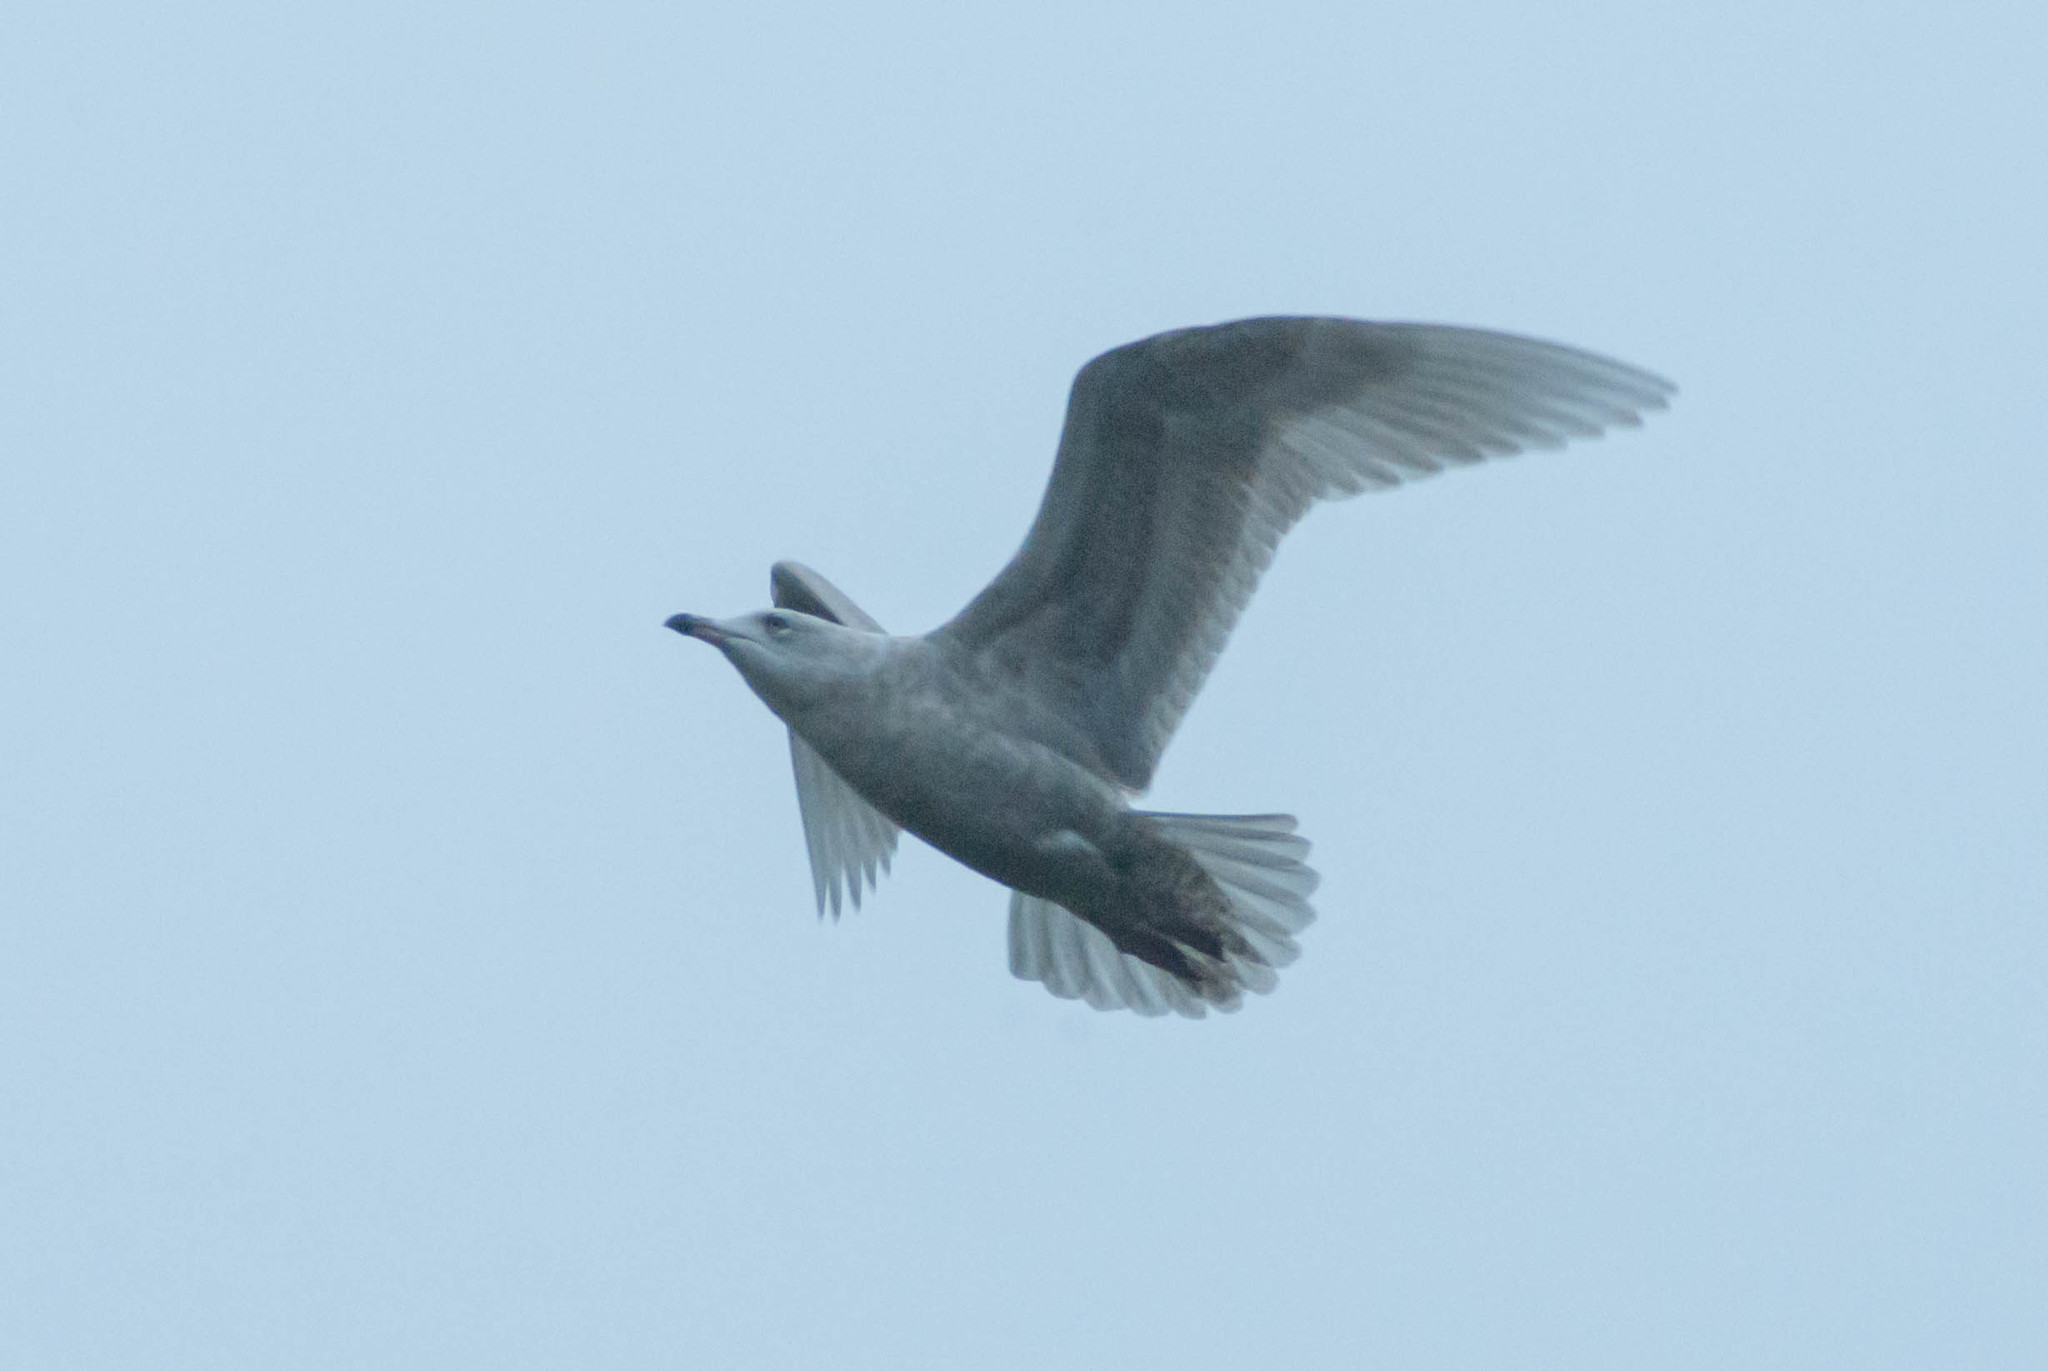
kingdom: Animalia
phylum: Chordata
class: Aves
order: Charadriiformes
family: Laridae
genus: Larus
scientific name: Larus glaucoides
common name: Iceland gull
